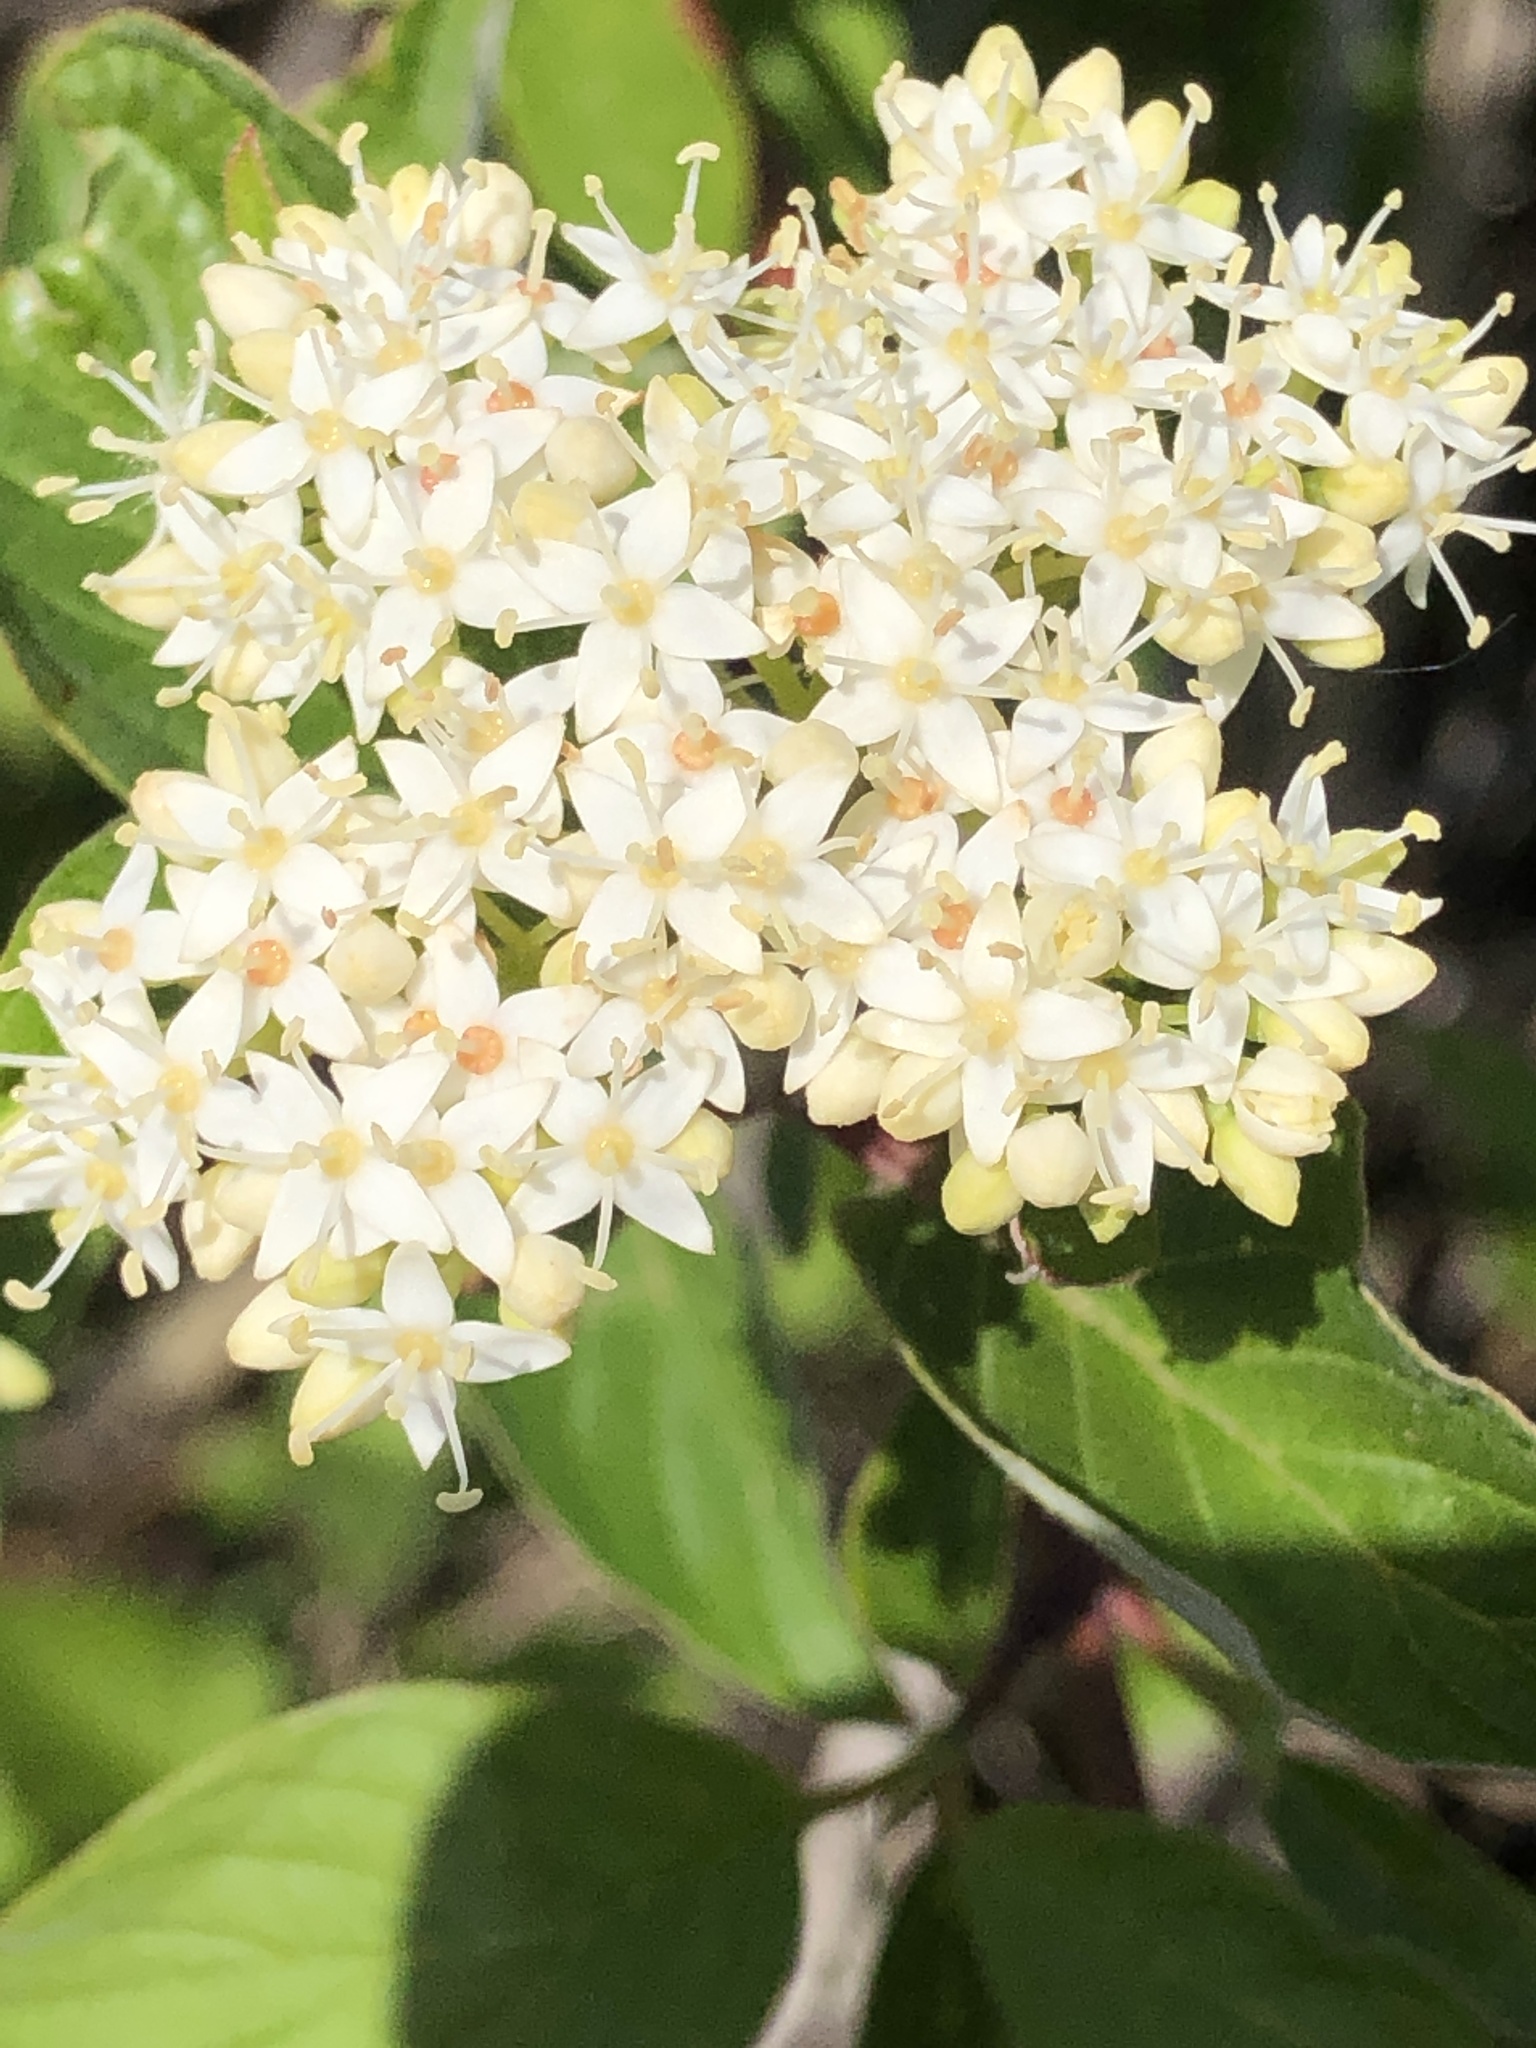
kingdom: Plantae
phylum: Tracheophyta
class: Magnoliopsida
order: Cornales
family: Cornaceae
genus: Cornus
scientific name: Cornus sericea
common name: Red-osier dogwood
